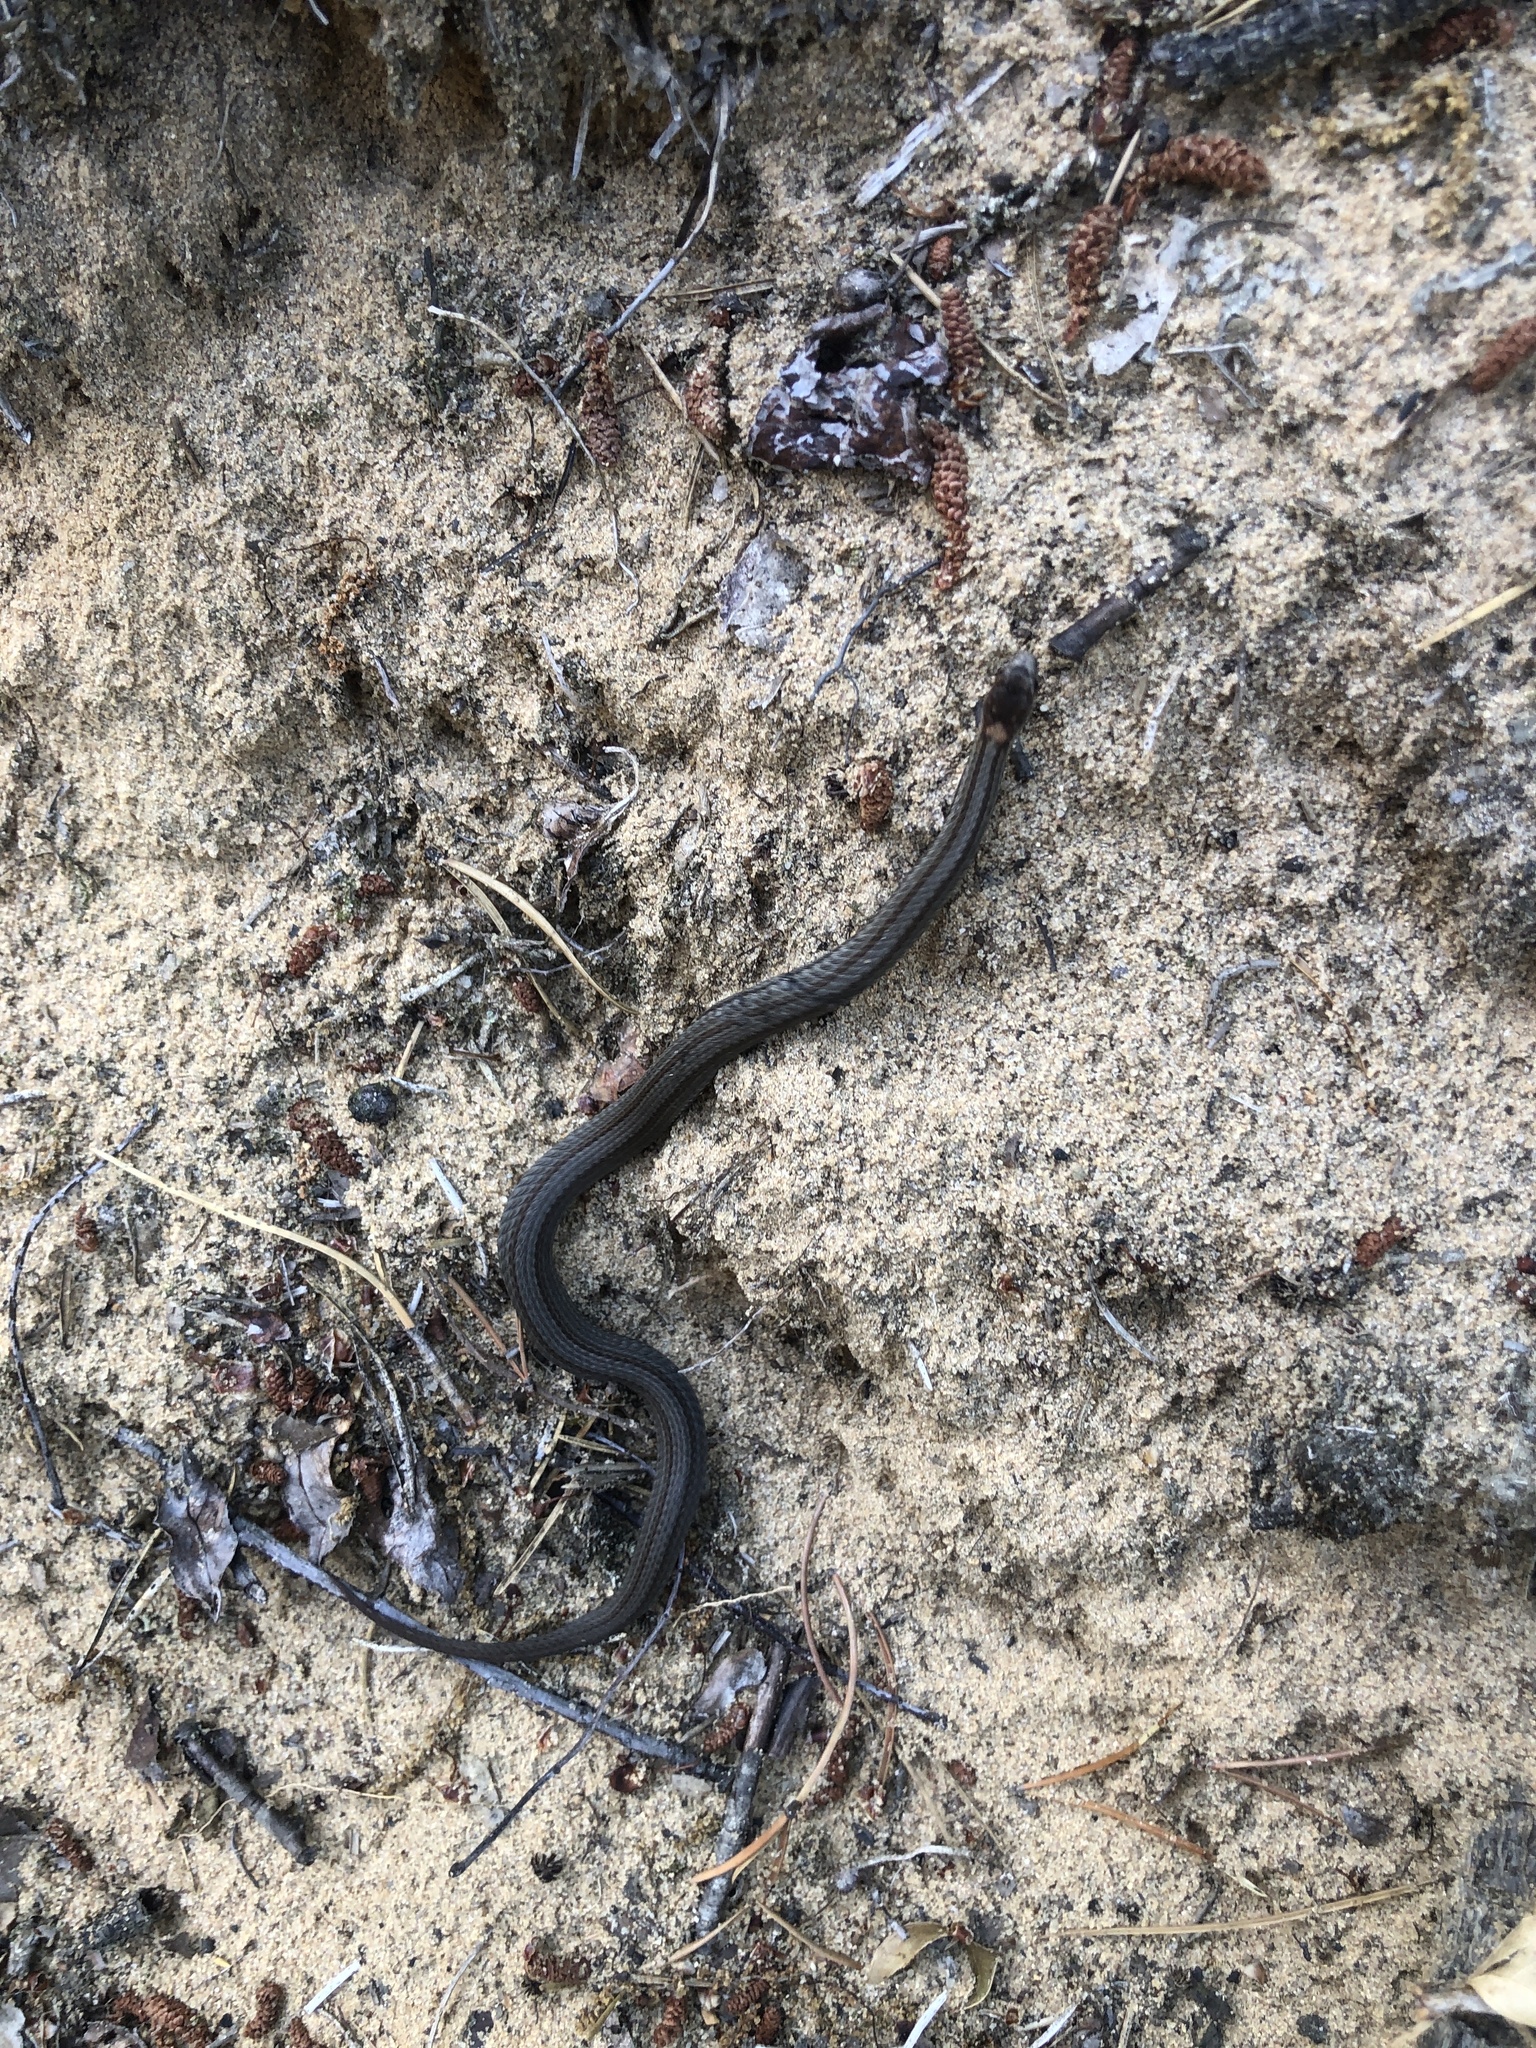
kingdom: Animalia
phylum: Chordata
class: Squamata
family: Colubridae
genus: Storeria
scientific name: Storeria occipitomaculata
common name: Redbelly snake
